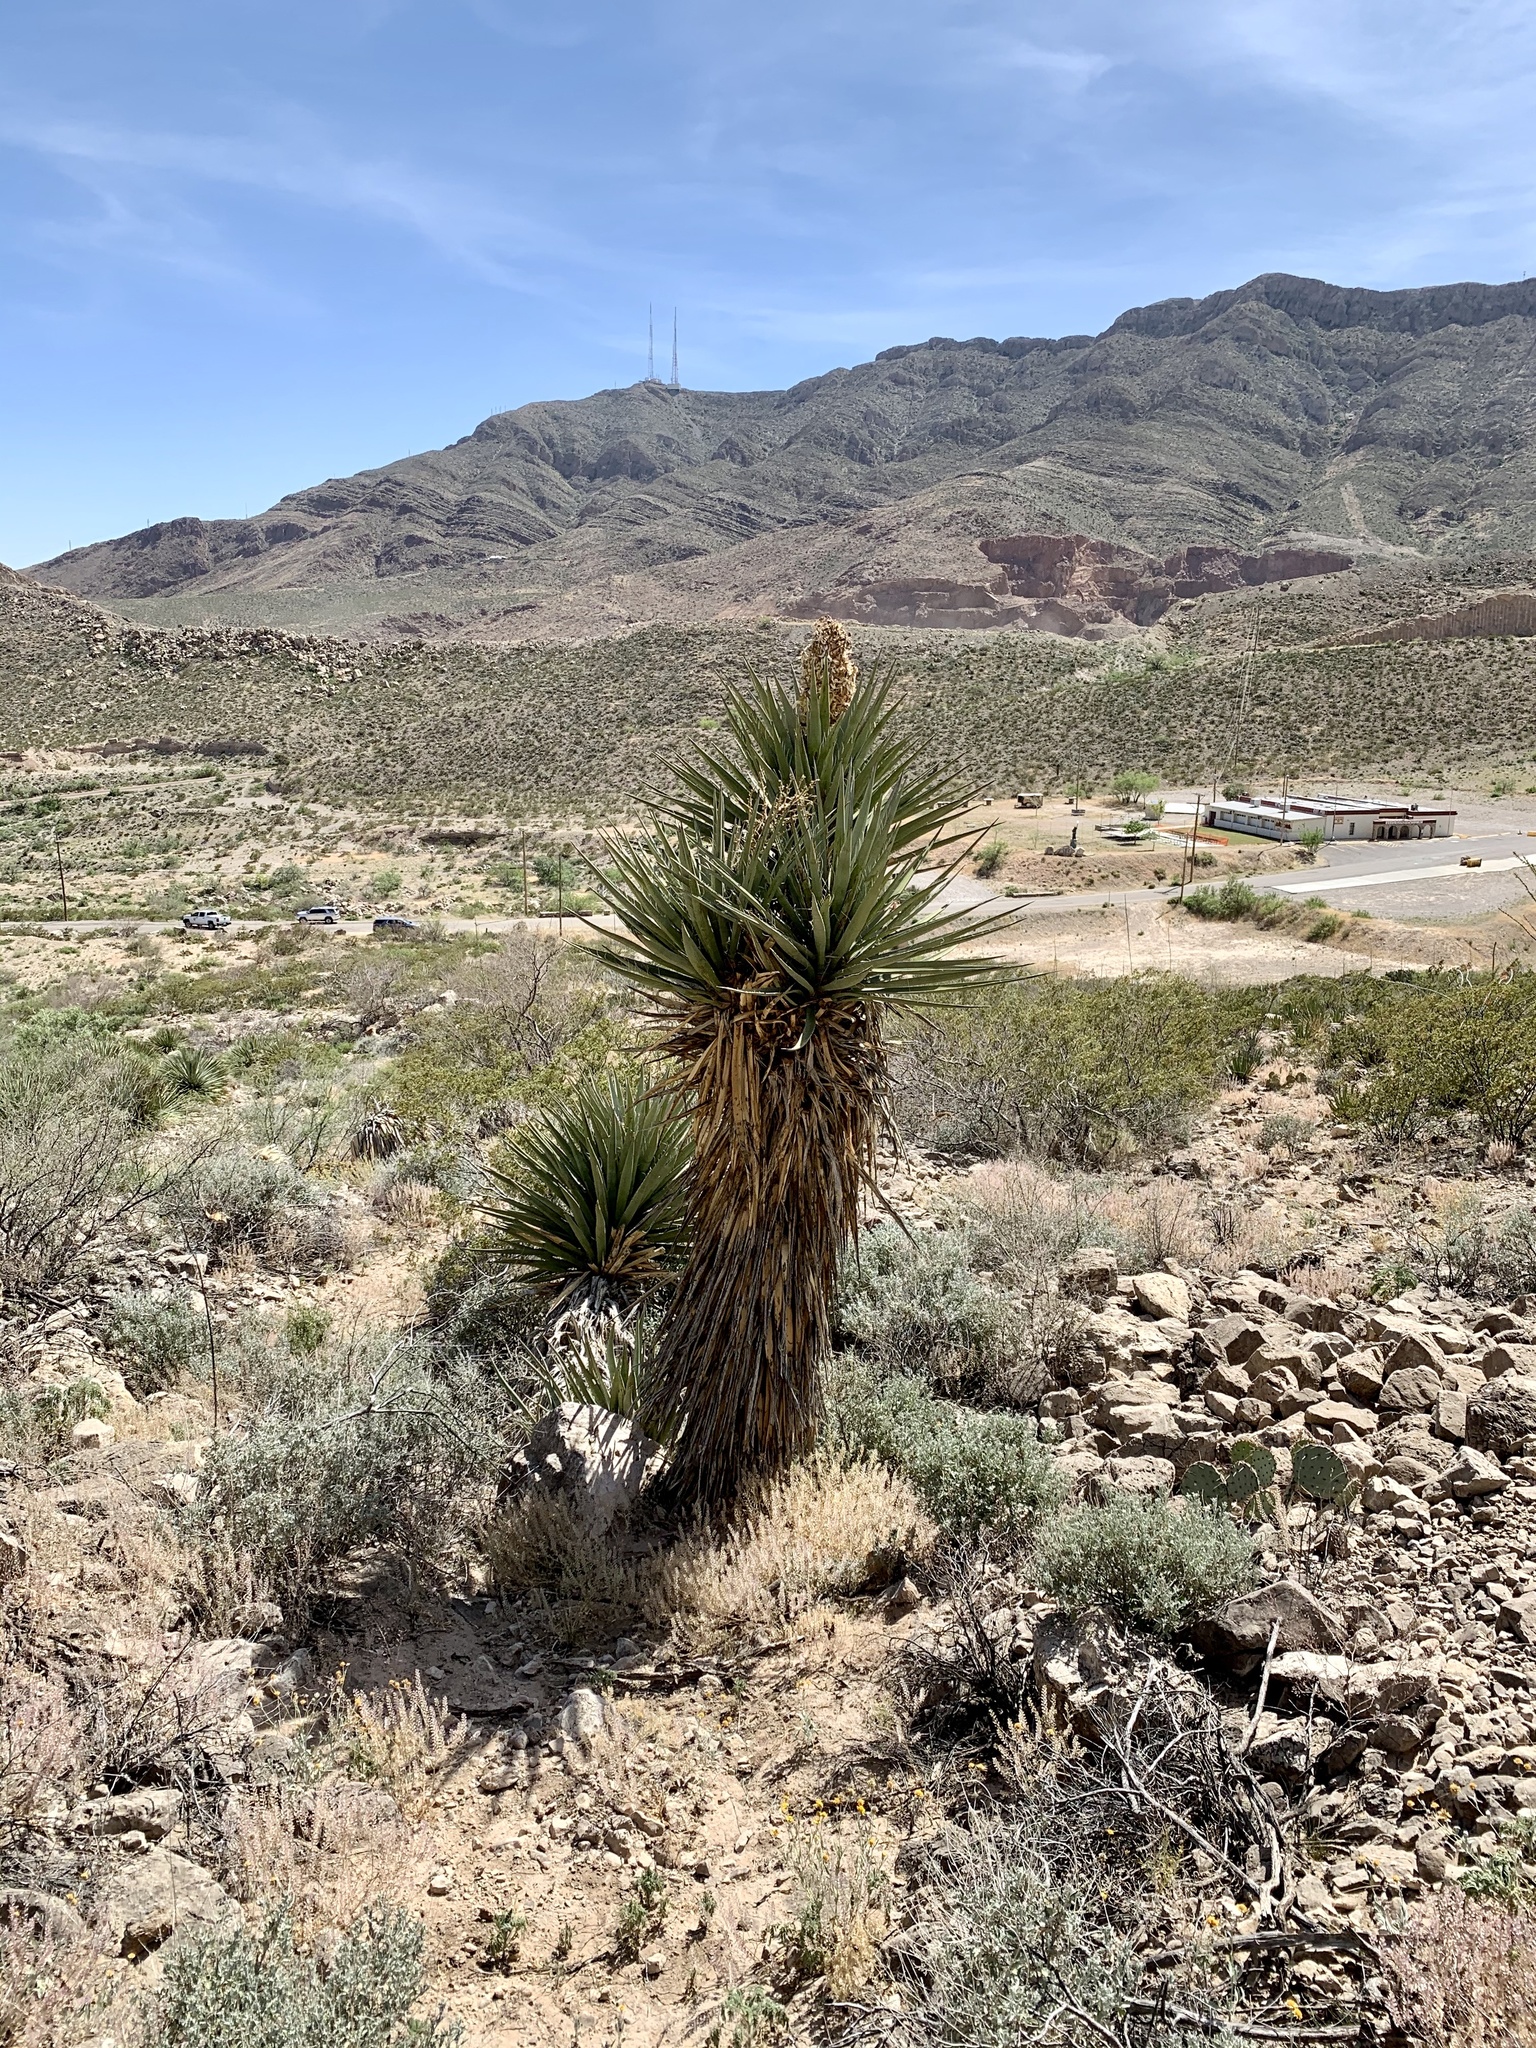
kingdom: Plantae
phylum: Tracheophyta
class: Liliopsida
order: Asparagales
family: Asparagaceae
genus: Yucca
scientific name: Yucca treculiana
